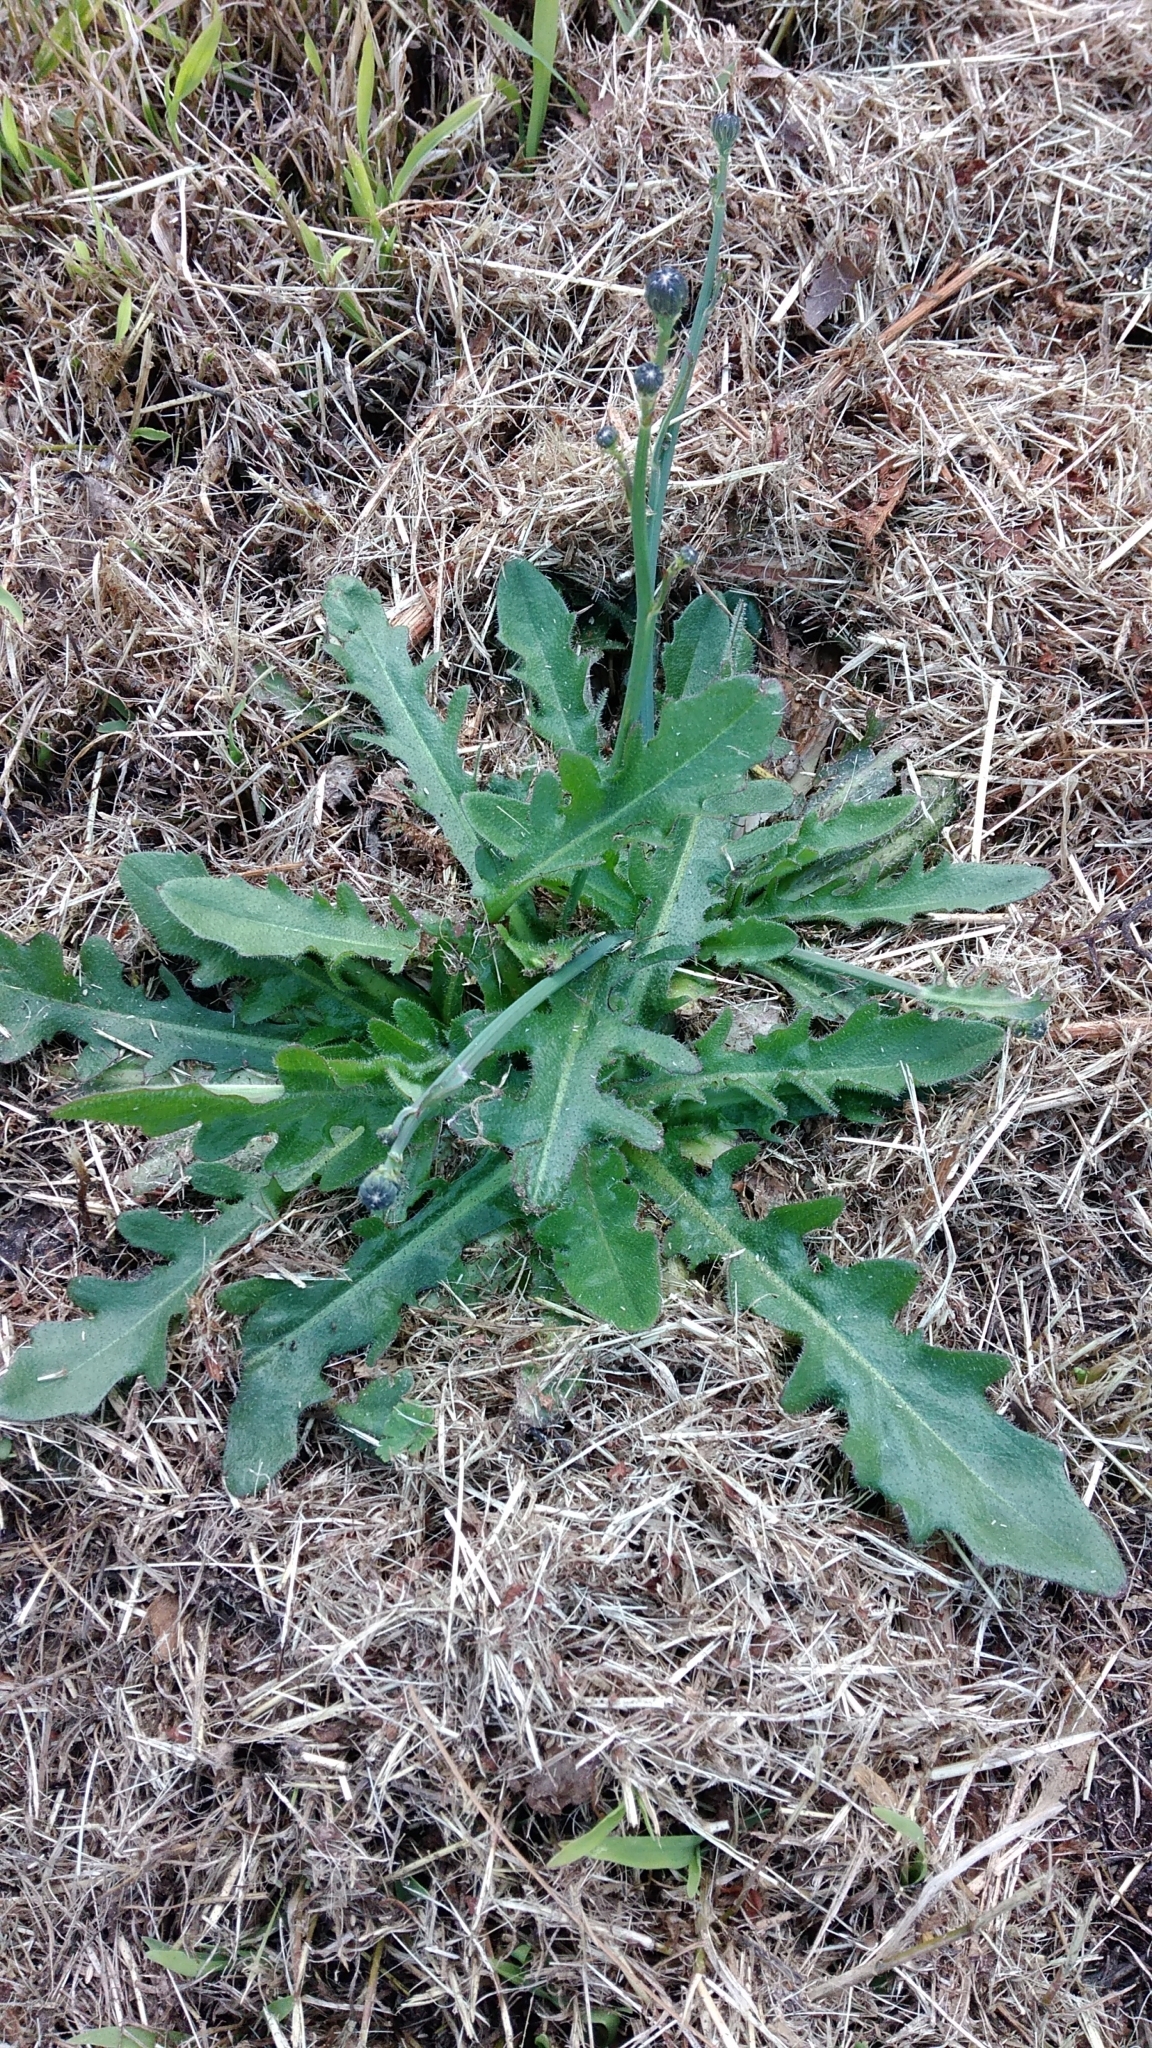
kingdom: Plantae
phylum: Tracheophyta
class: Magnoliopsida
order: Asterales
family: Asteraceae
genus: Hypochaeris
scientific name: Hypochaeris radicata
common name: Flatweed
